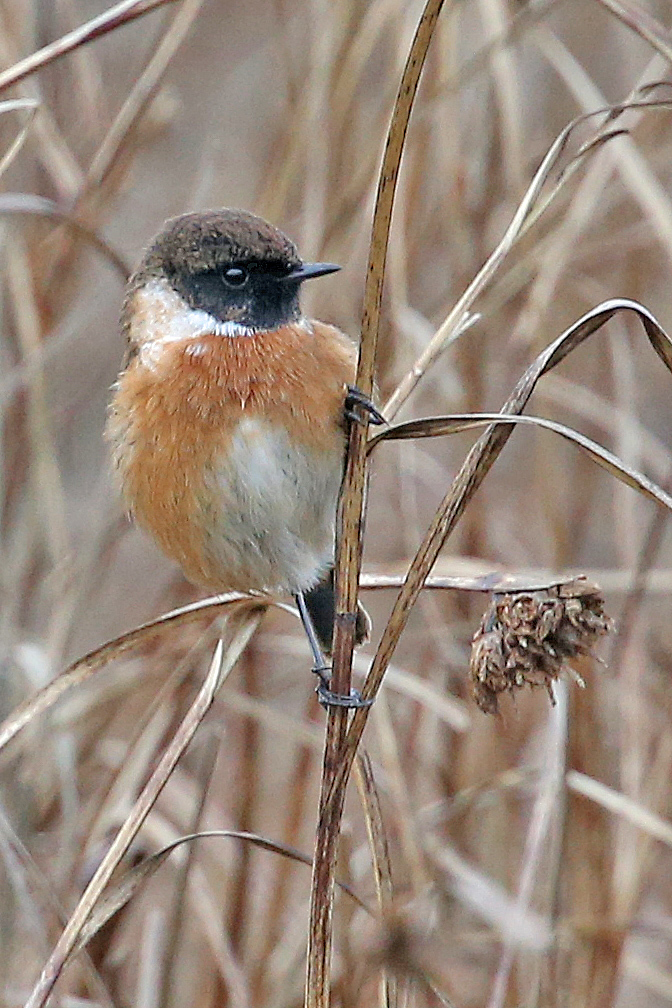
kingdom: Animalia
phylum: Chordata
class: Aves
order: Passeriformes
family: Muscicapidae
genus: Saxicola
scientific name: Saxicola rubicola
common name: European stonechat
